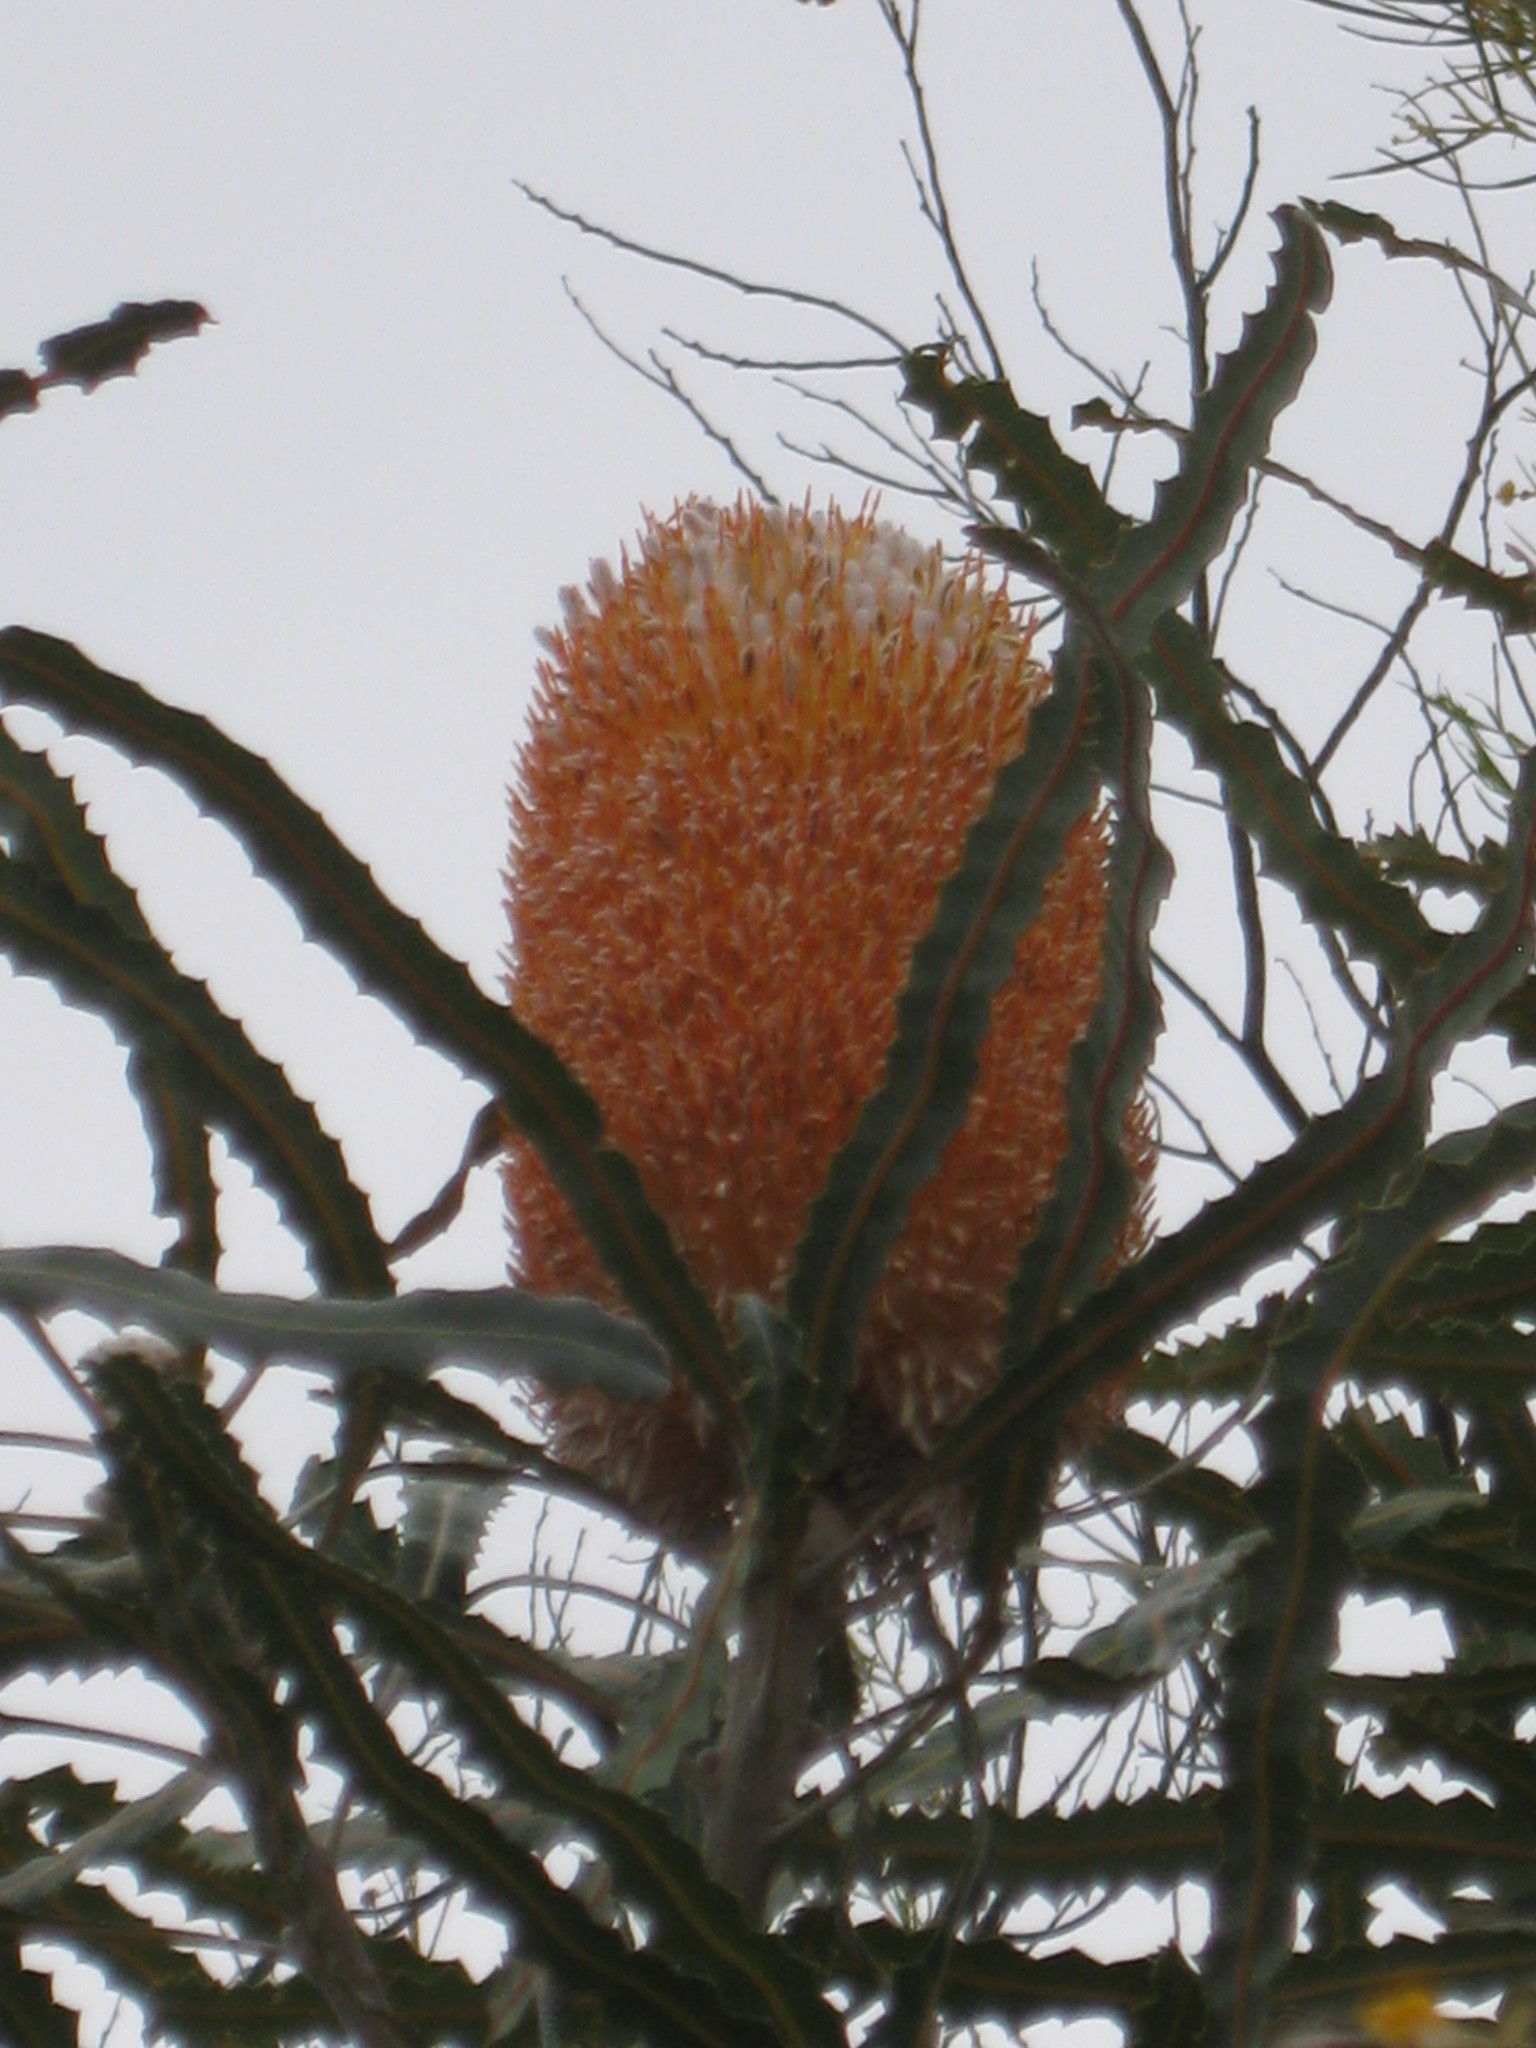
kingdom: Plantae
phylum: Tracheophyta
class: Magnoliopsida
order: Proteales
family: Proteaceae
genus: Banksia
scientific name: Banksia prionotes
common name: Acorn banksia
